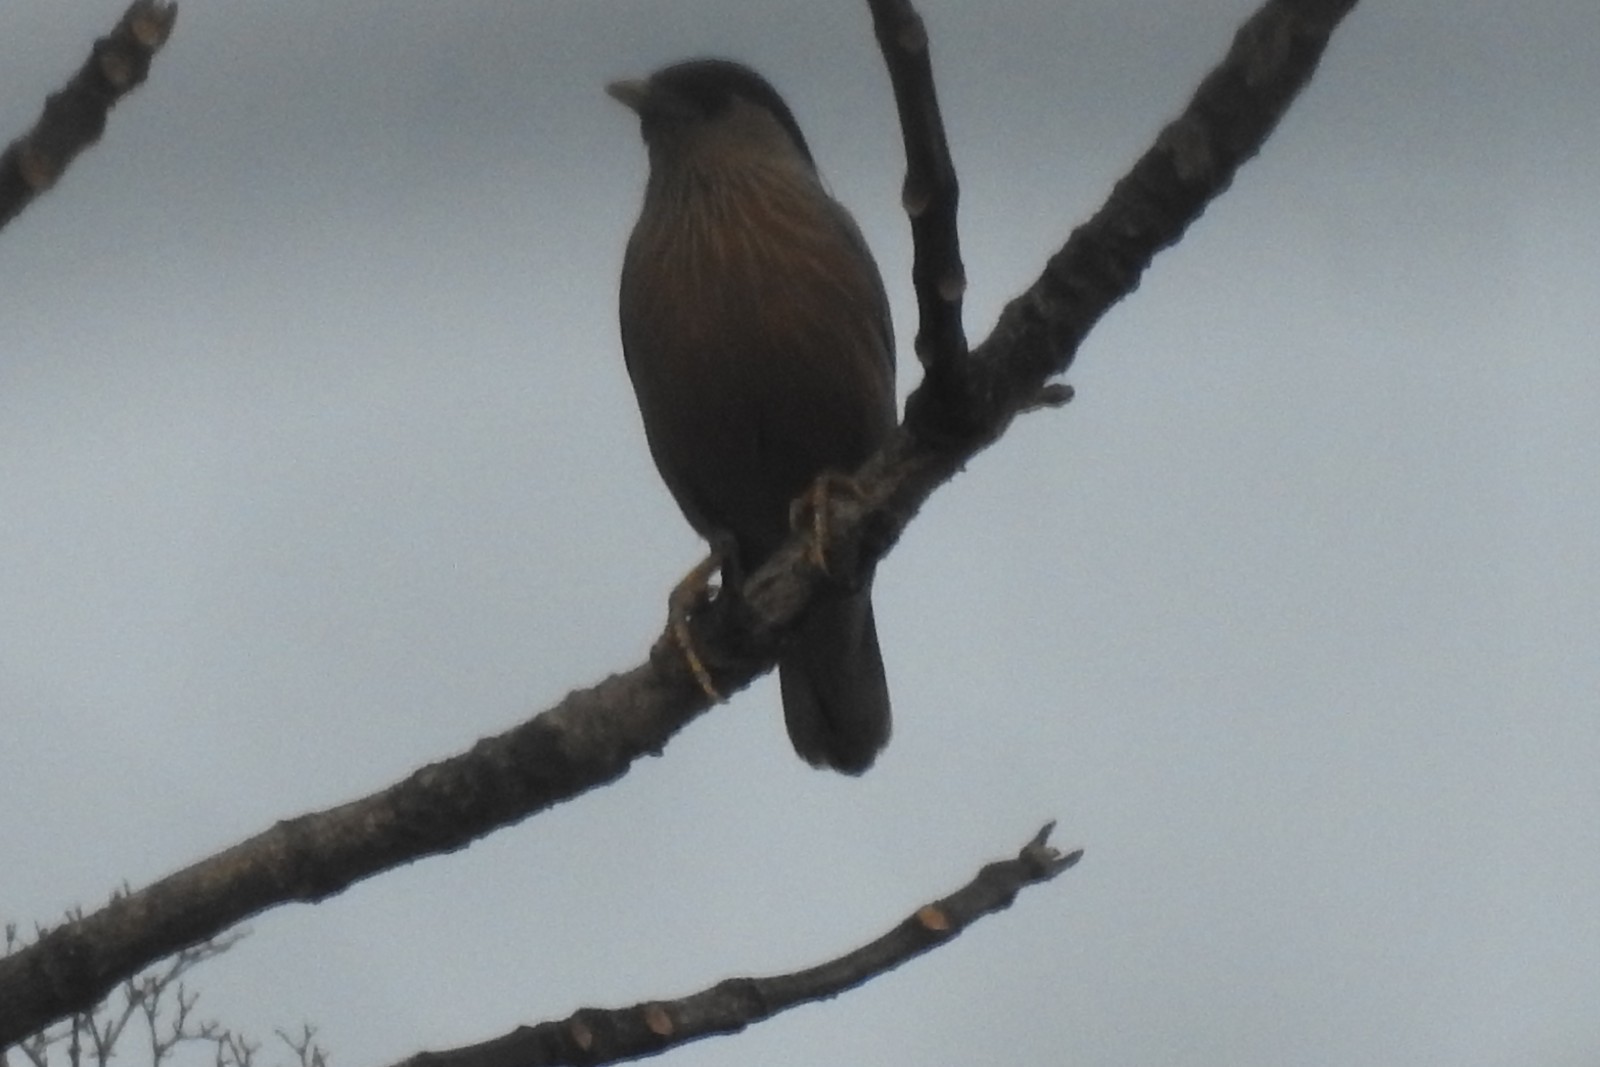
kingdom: Animalia
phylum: Chordata
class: Aves
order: Passeriformes
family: Sturnidae
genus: Sturnia
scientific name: Sturnia pagodarum
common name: Brahminy starling
